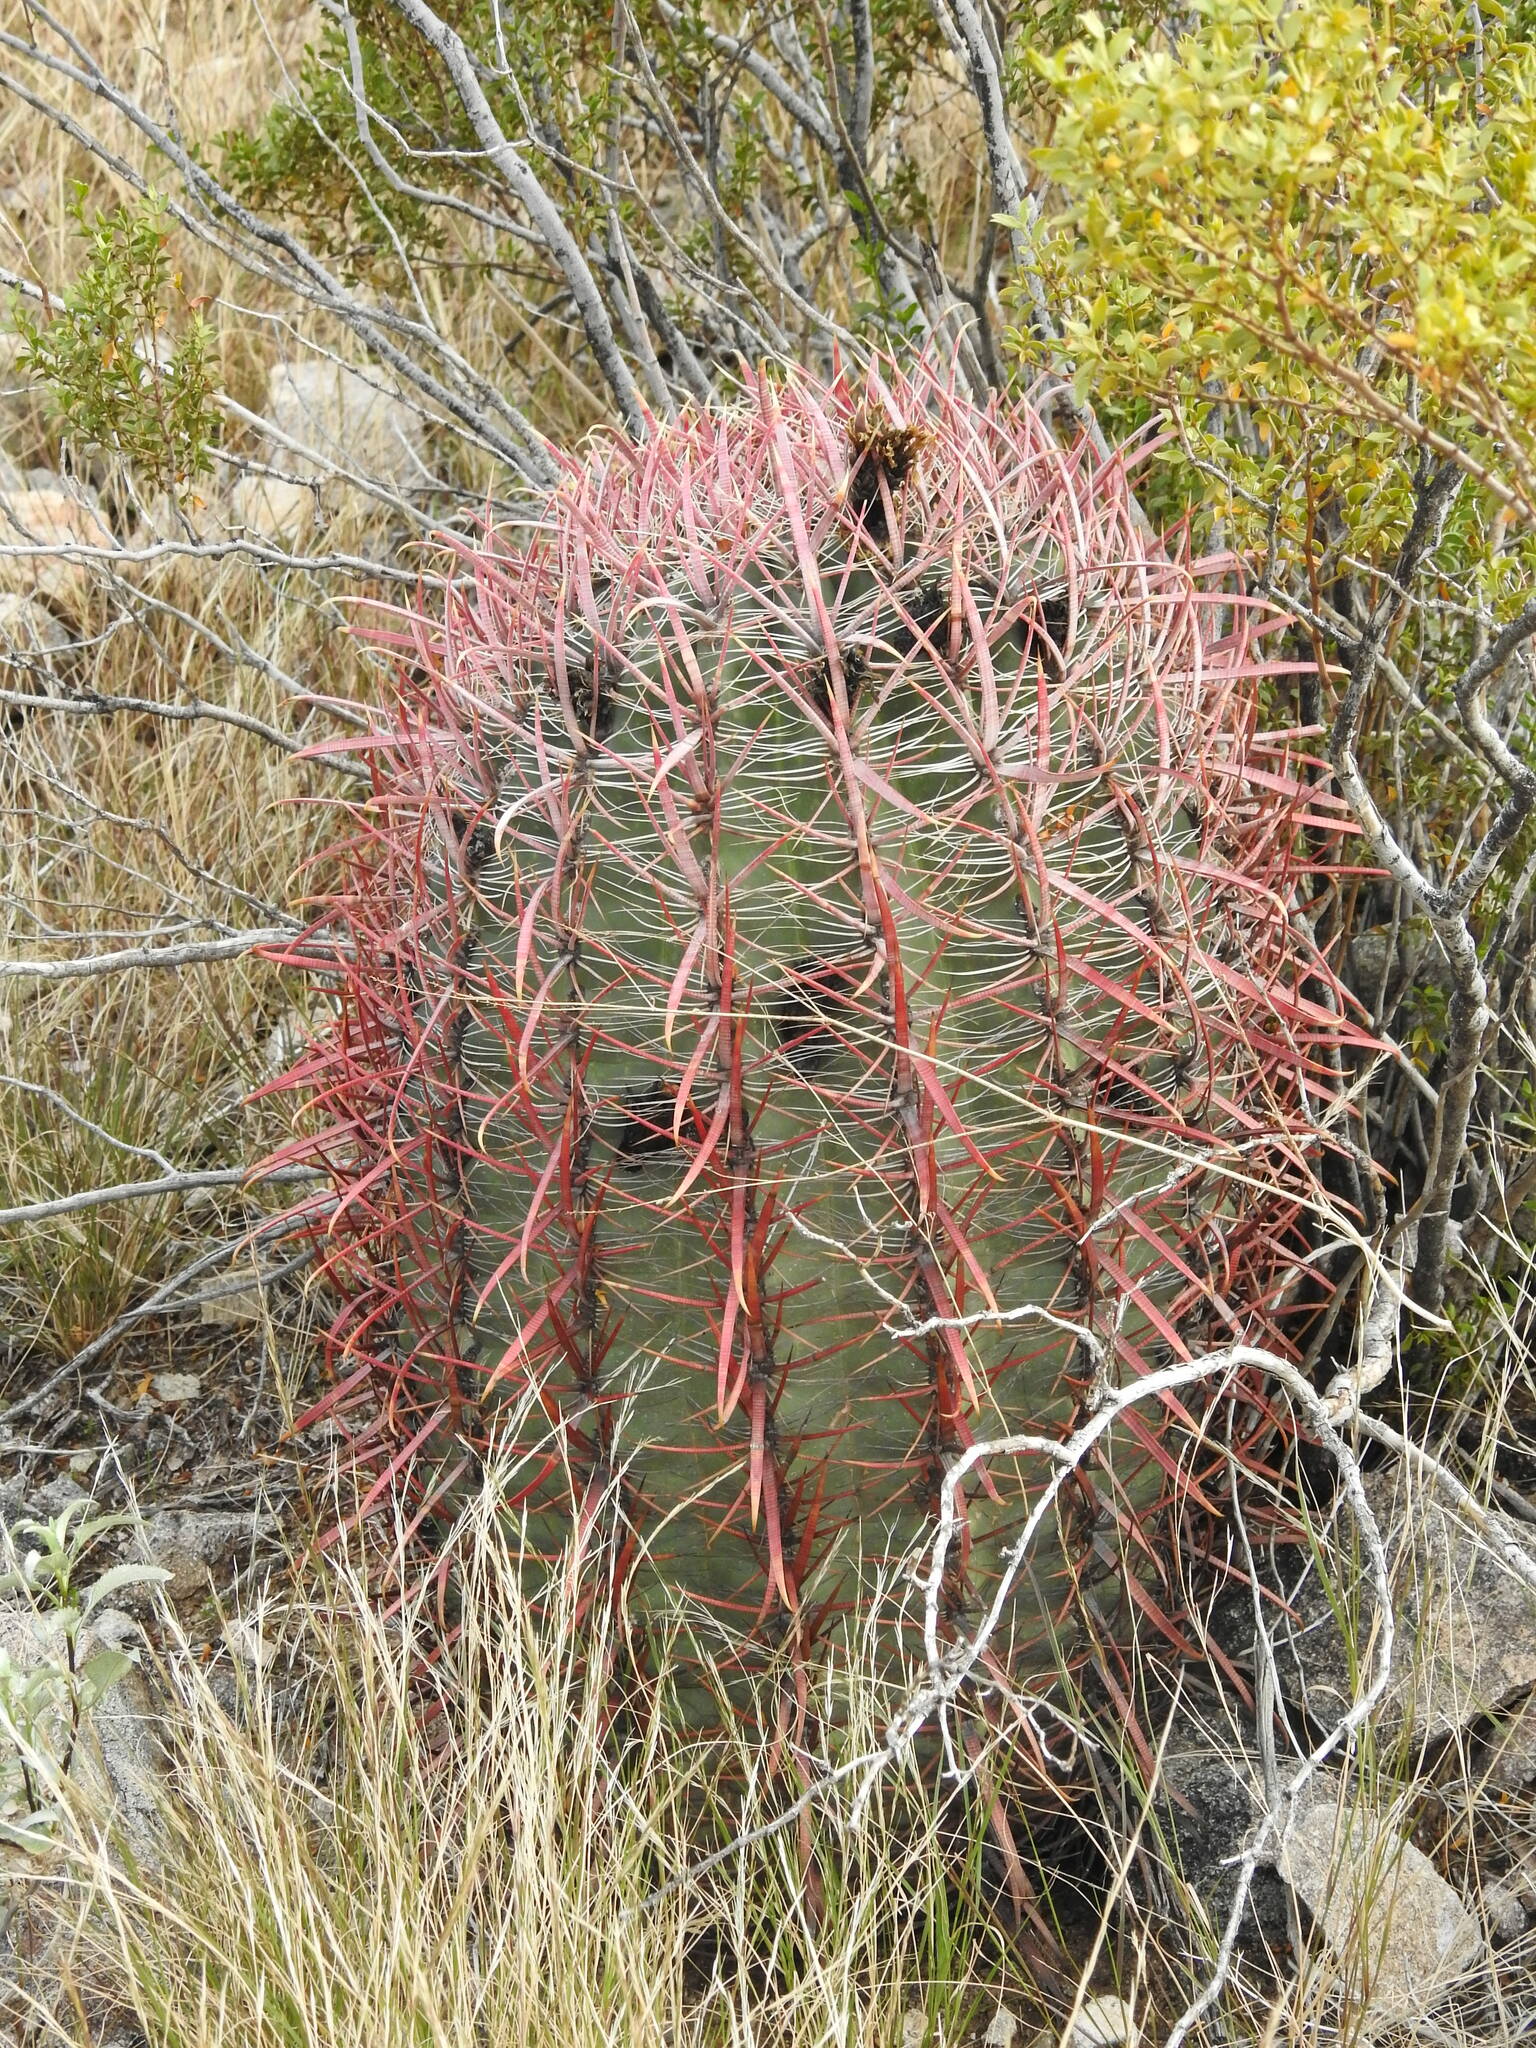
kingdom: Plantae
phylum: Tracheophyta
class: Magnoliopsida
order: Caryophyllales
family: Cactaceae
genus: Ferocactus
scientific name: Ferocactus cylindraceus
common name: California barrel cactus
